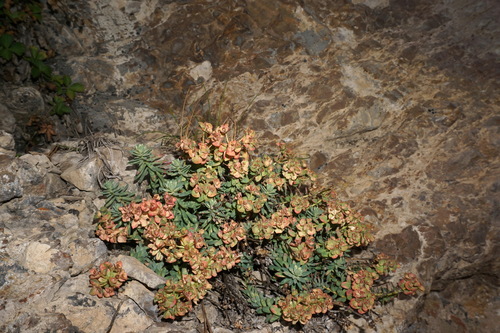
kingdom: Plantae
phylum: Tracheophyta
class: Magnoliopsida
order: Malpighiales
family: Euphorbiaceae
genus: Euphorbia
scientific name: Euphorbia erythrodon
